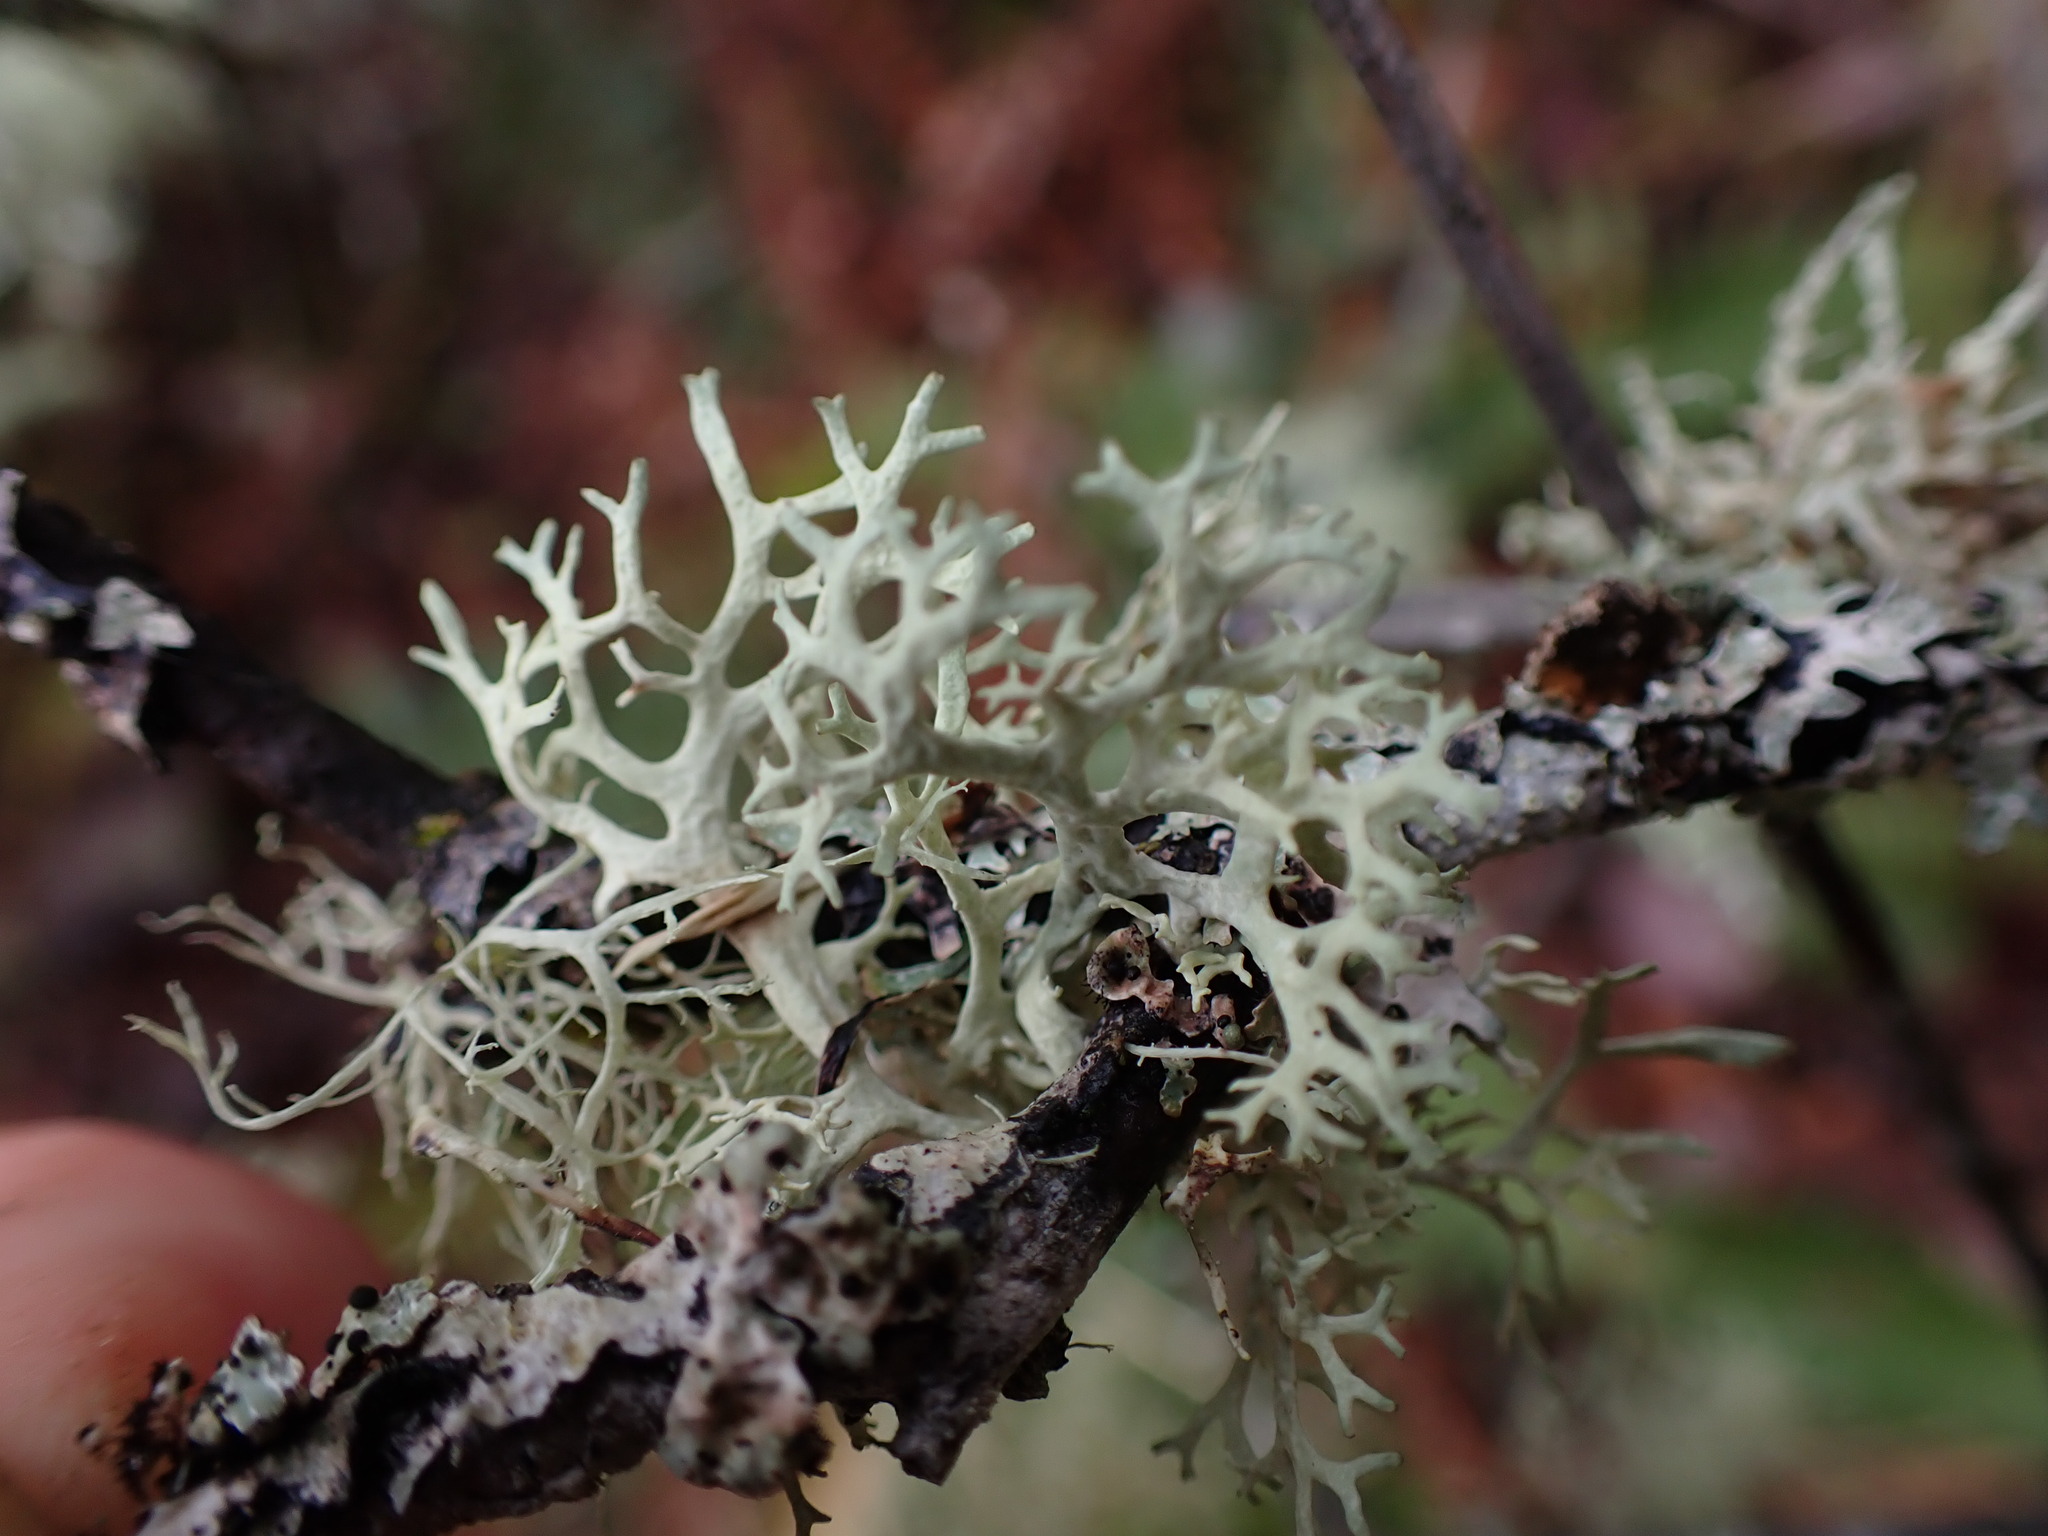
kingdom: Fungi
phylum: Ascomycota
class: Lecanoromycetes
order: Lecanorales
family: Parmeliaceae
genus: Evernia
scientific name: Evernia prunastri
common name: Oak moss
